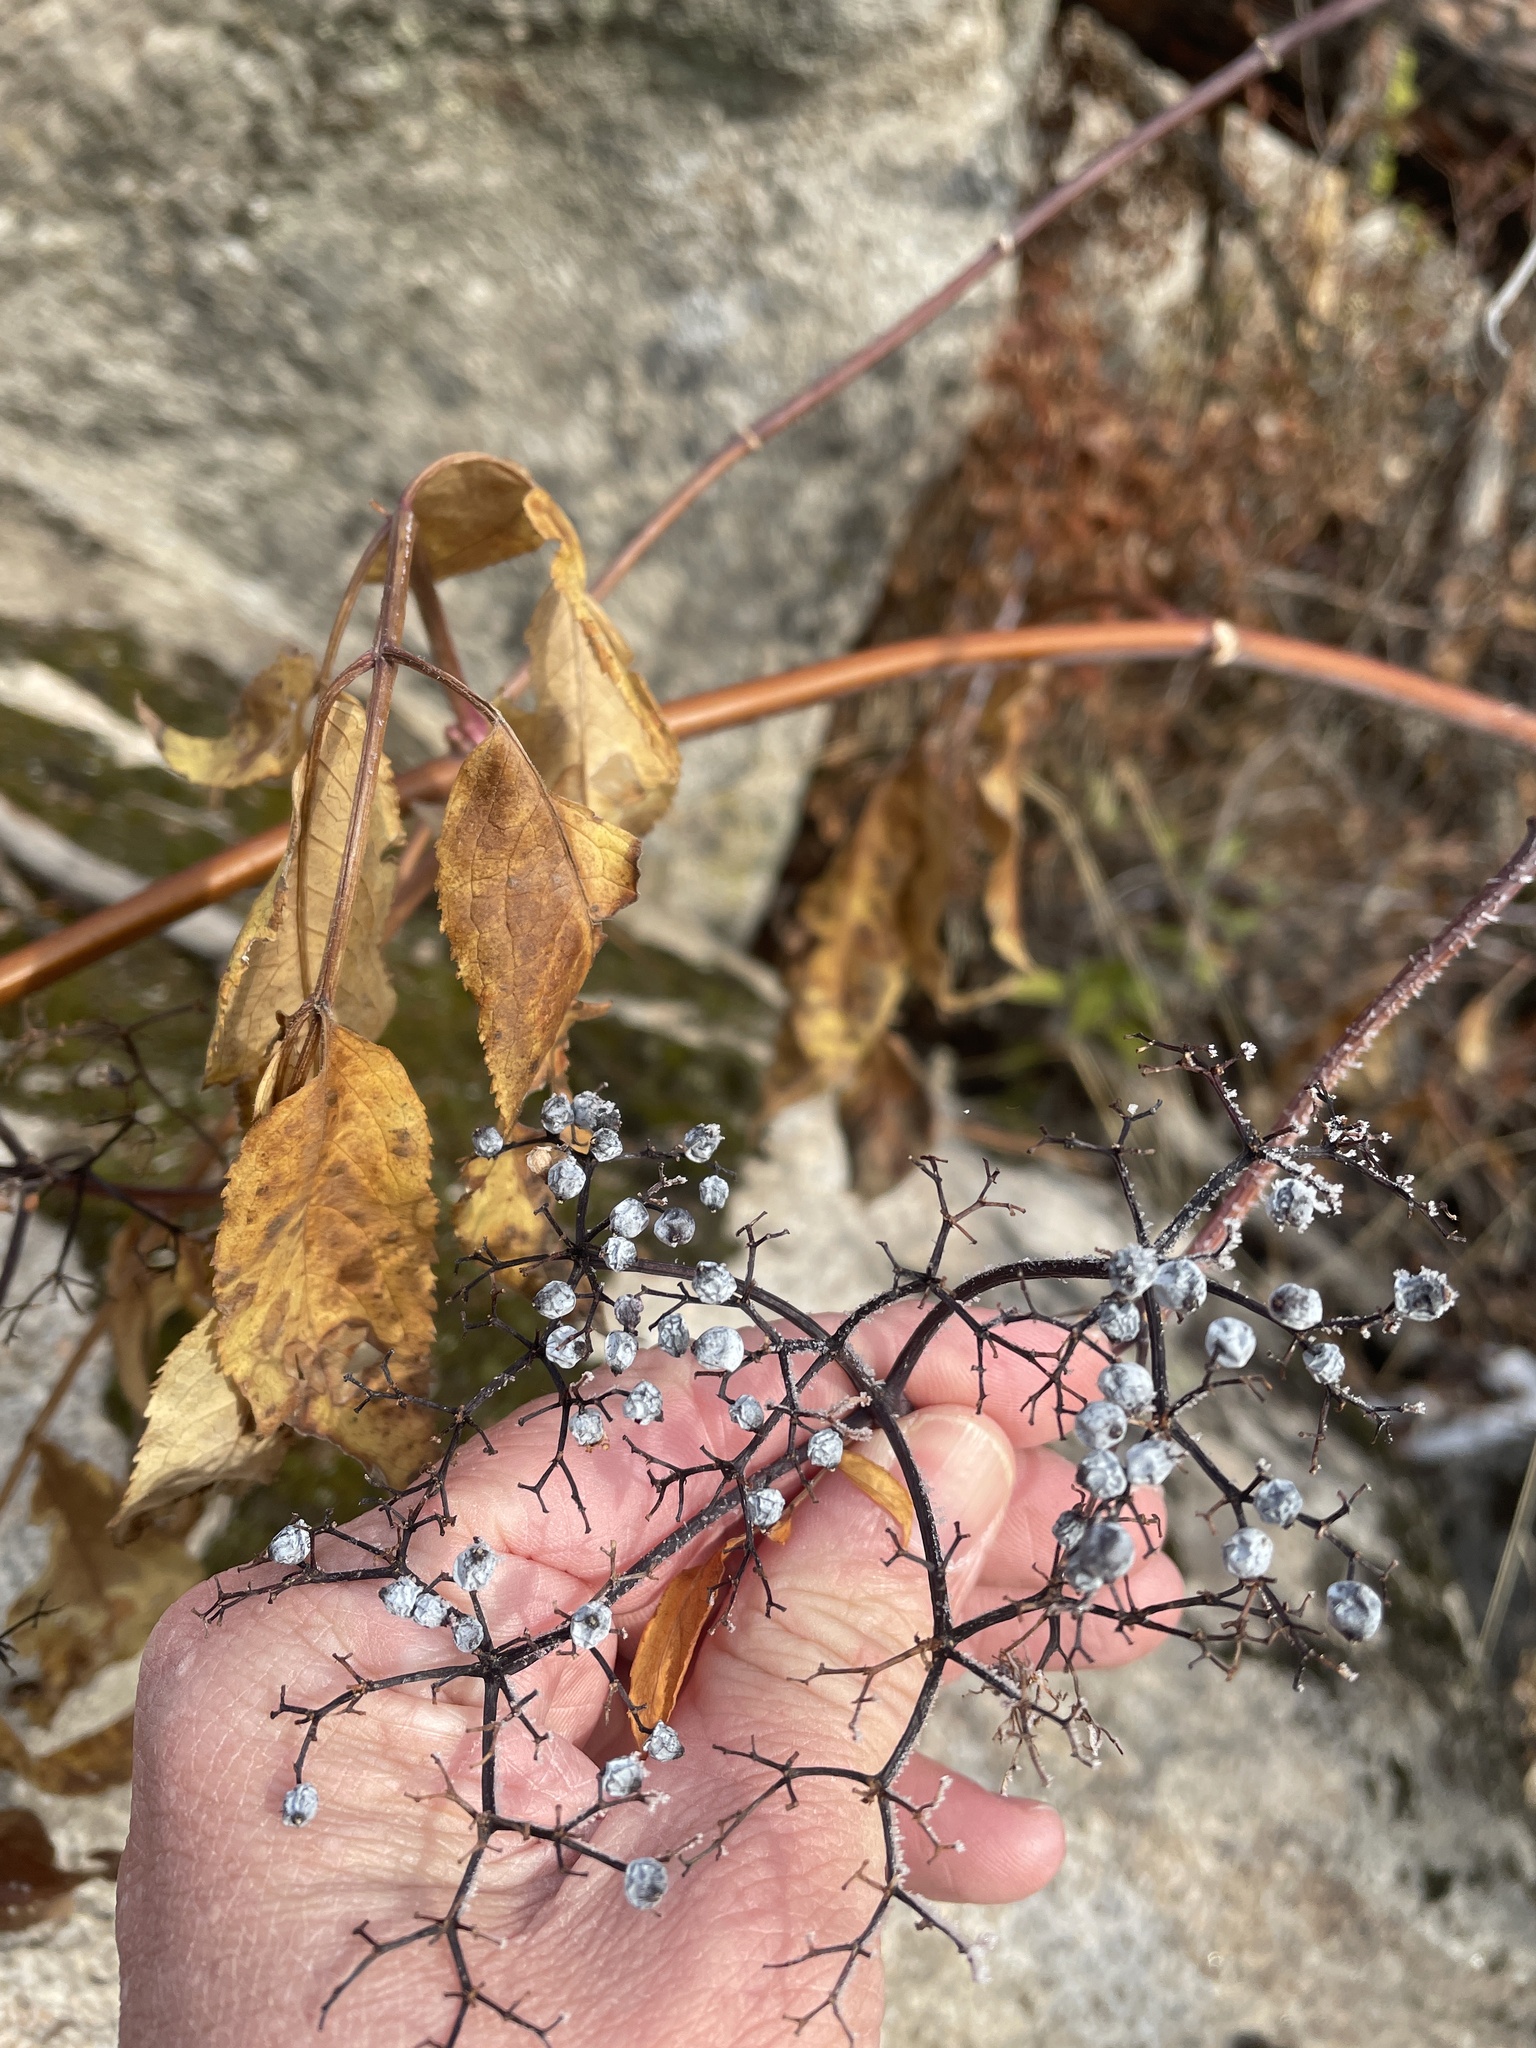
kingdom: Plantae
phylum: Tracheophyta
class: Magnoliopsida
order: Dipsacales
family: Viburnaceae
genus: Sambucus
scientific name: Sambucus cerulea
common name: Blue elder
